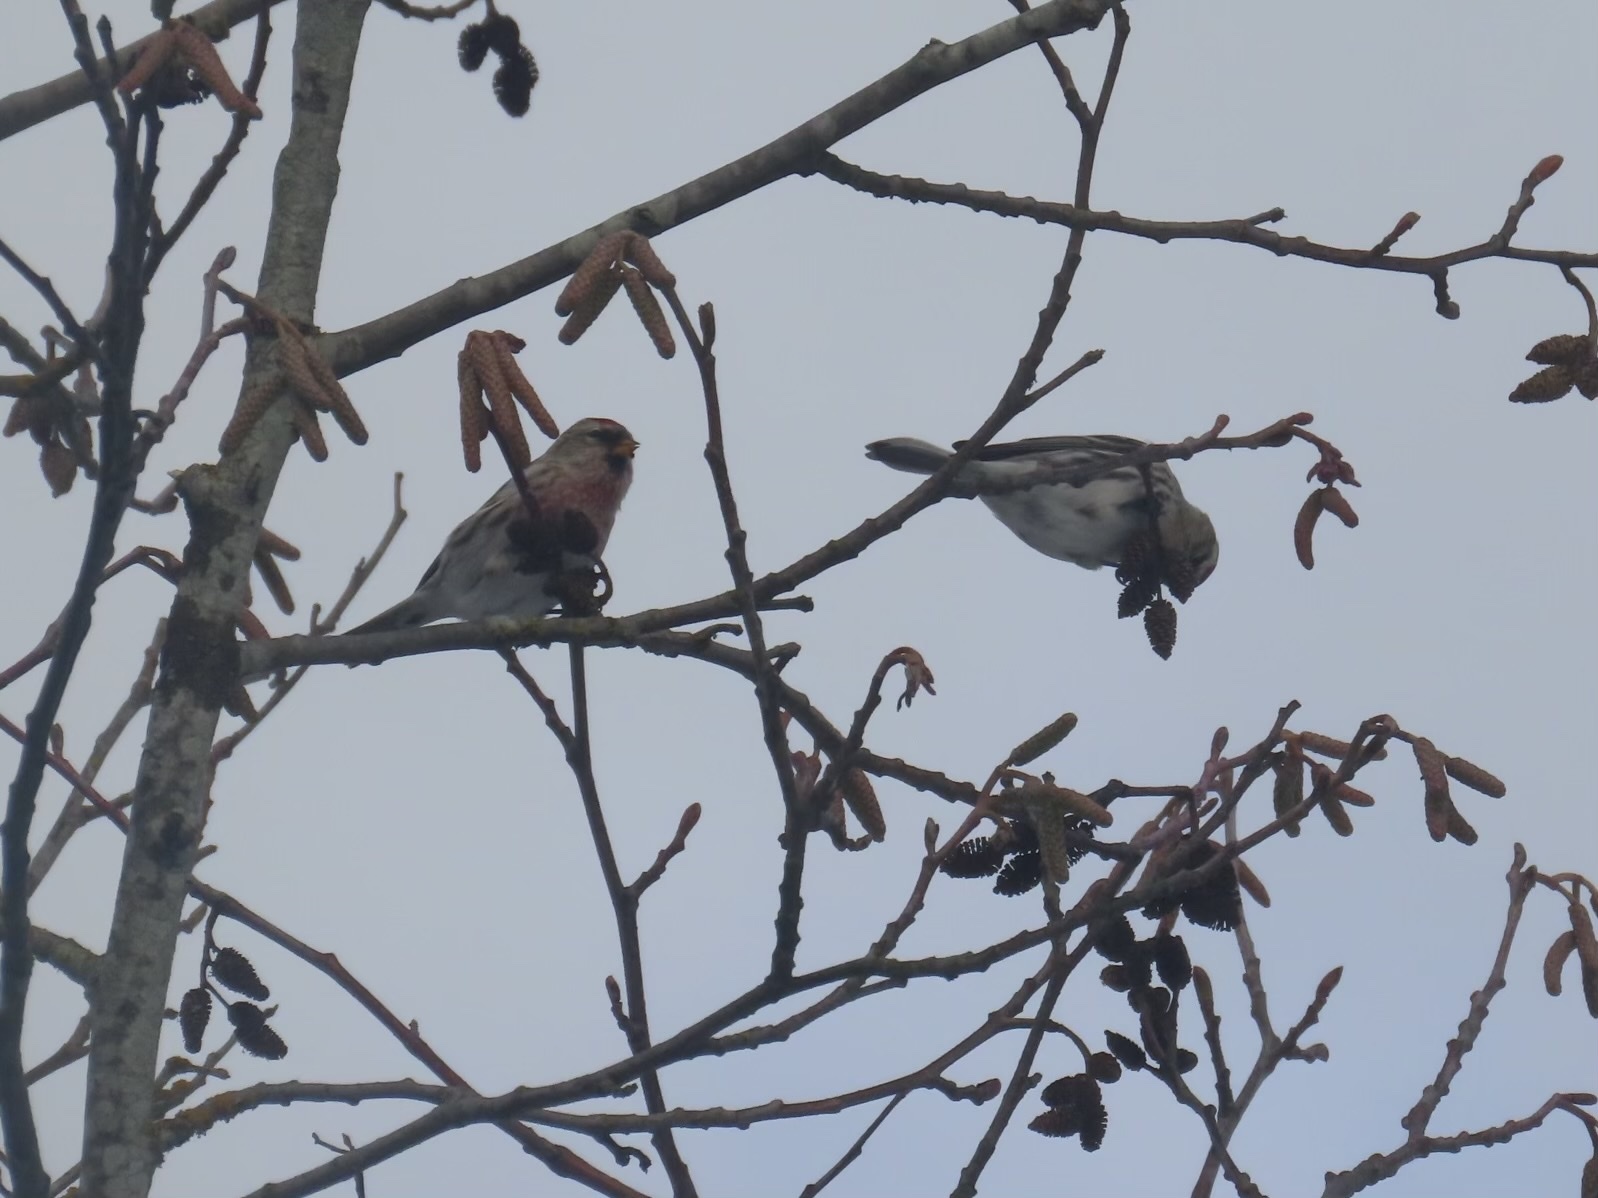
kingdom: Animalia
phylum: Chordata
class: Aves
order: Passeriformes
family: Fringillidae
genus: Acanthis
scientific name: Acanthis flammea
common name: Common redpoll
